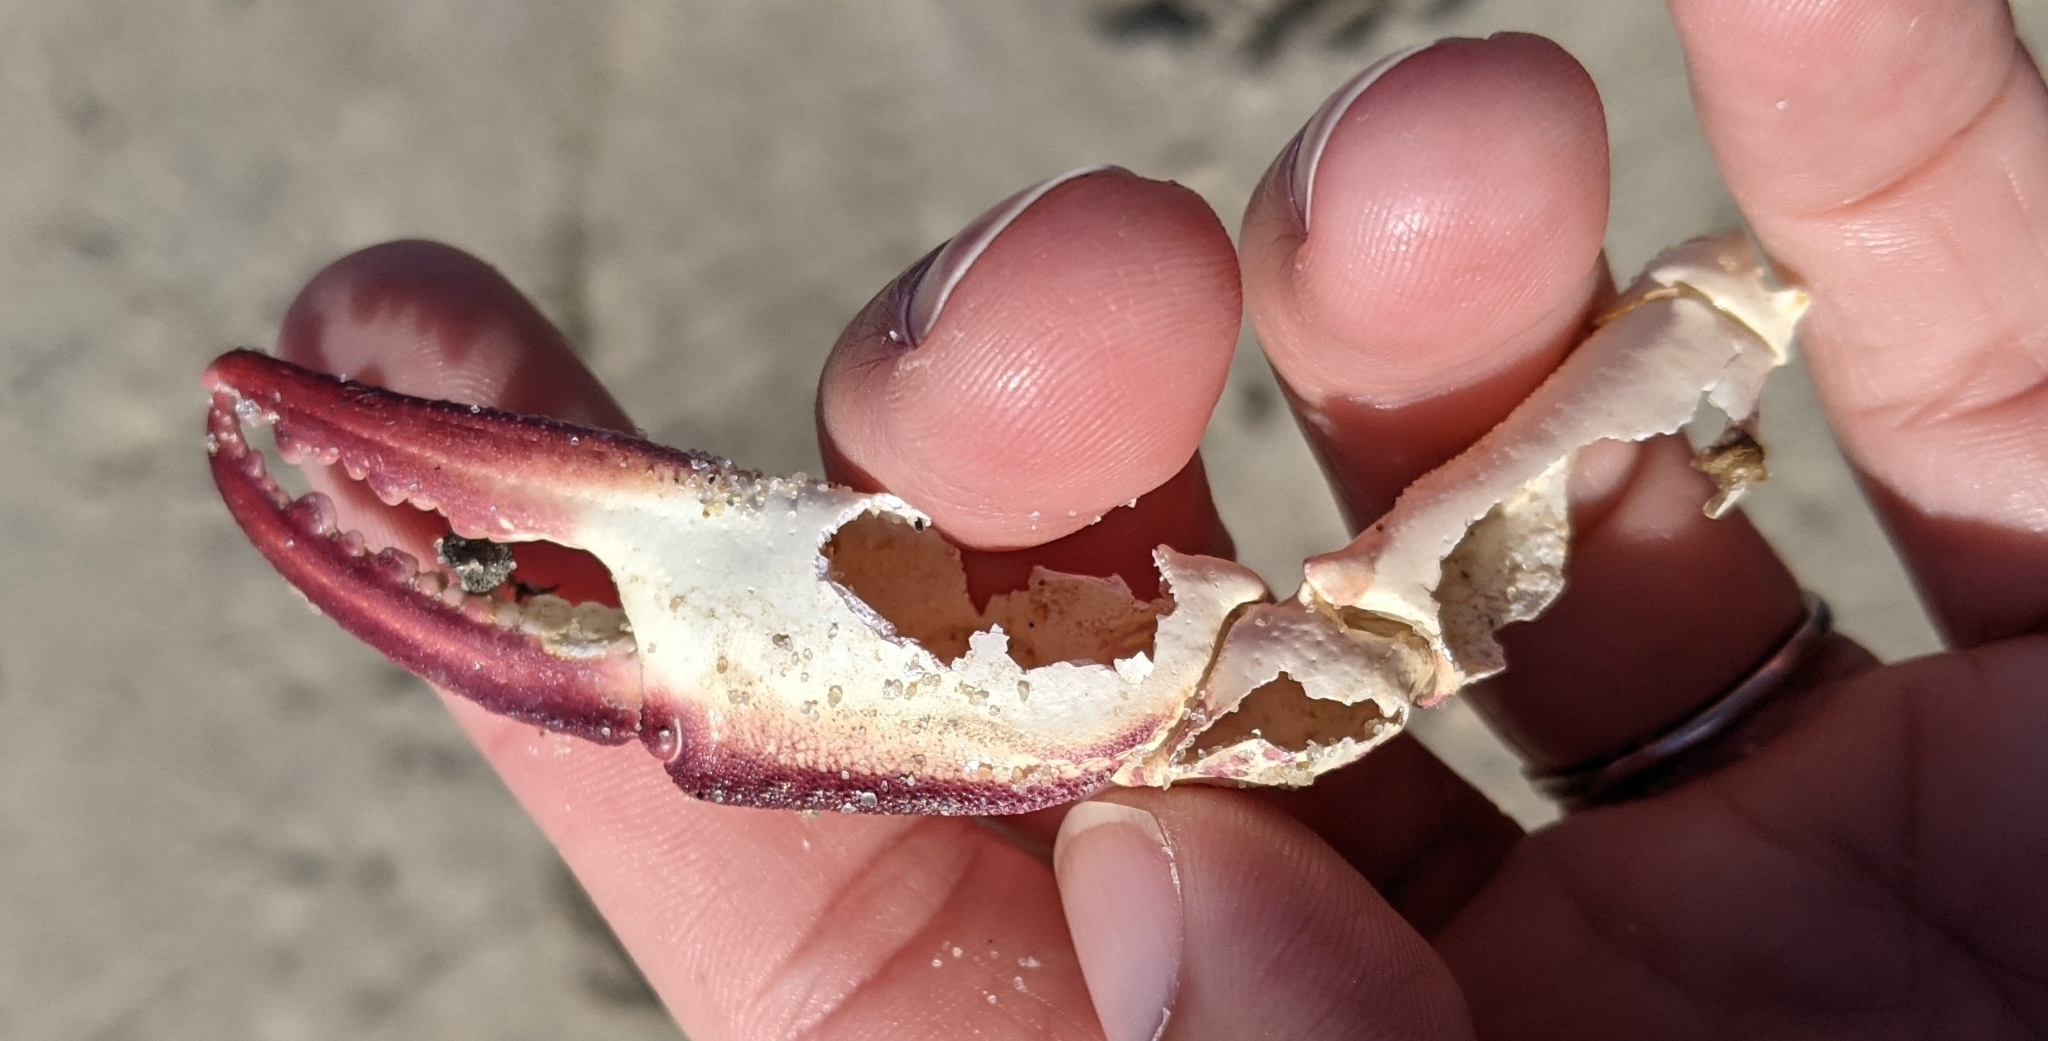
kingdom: Animalia
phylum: Arthropoda
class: Malacostraca
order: Decapoda
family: Ovalipidae
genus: Ovalipes
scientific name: Ovalipes ocellatus
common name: Lady crab
